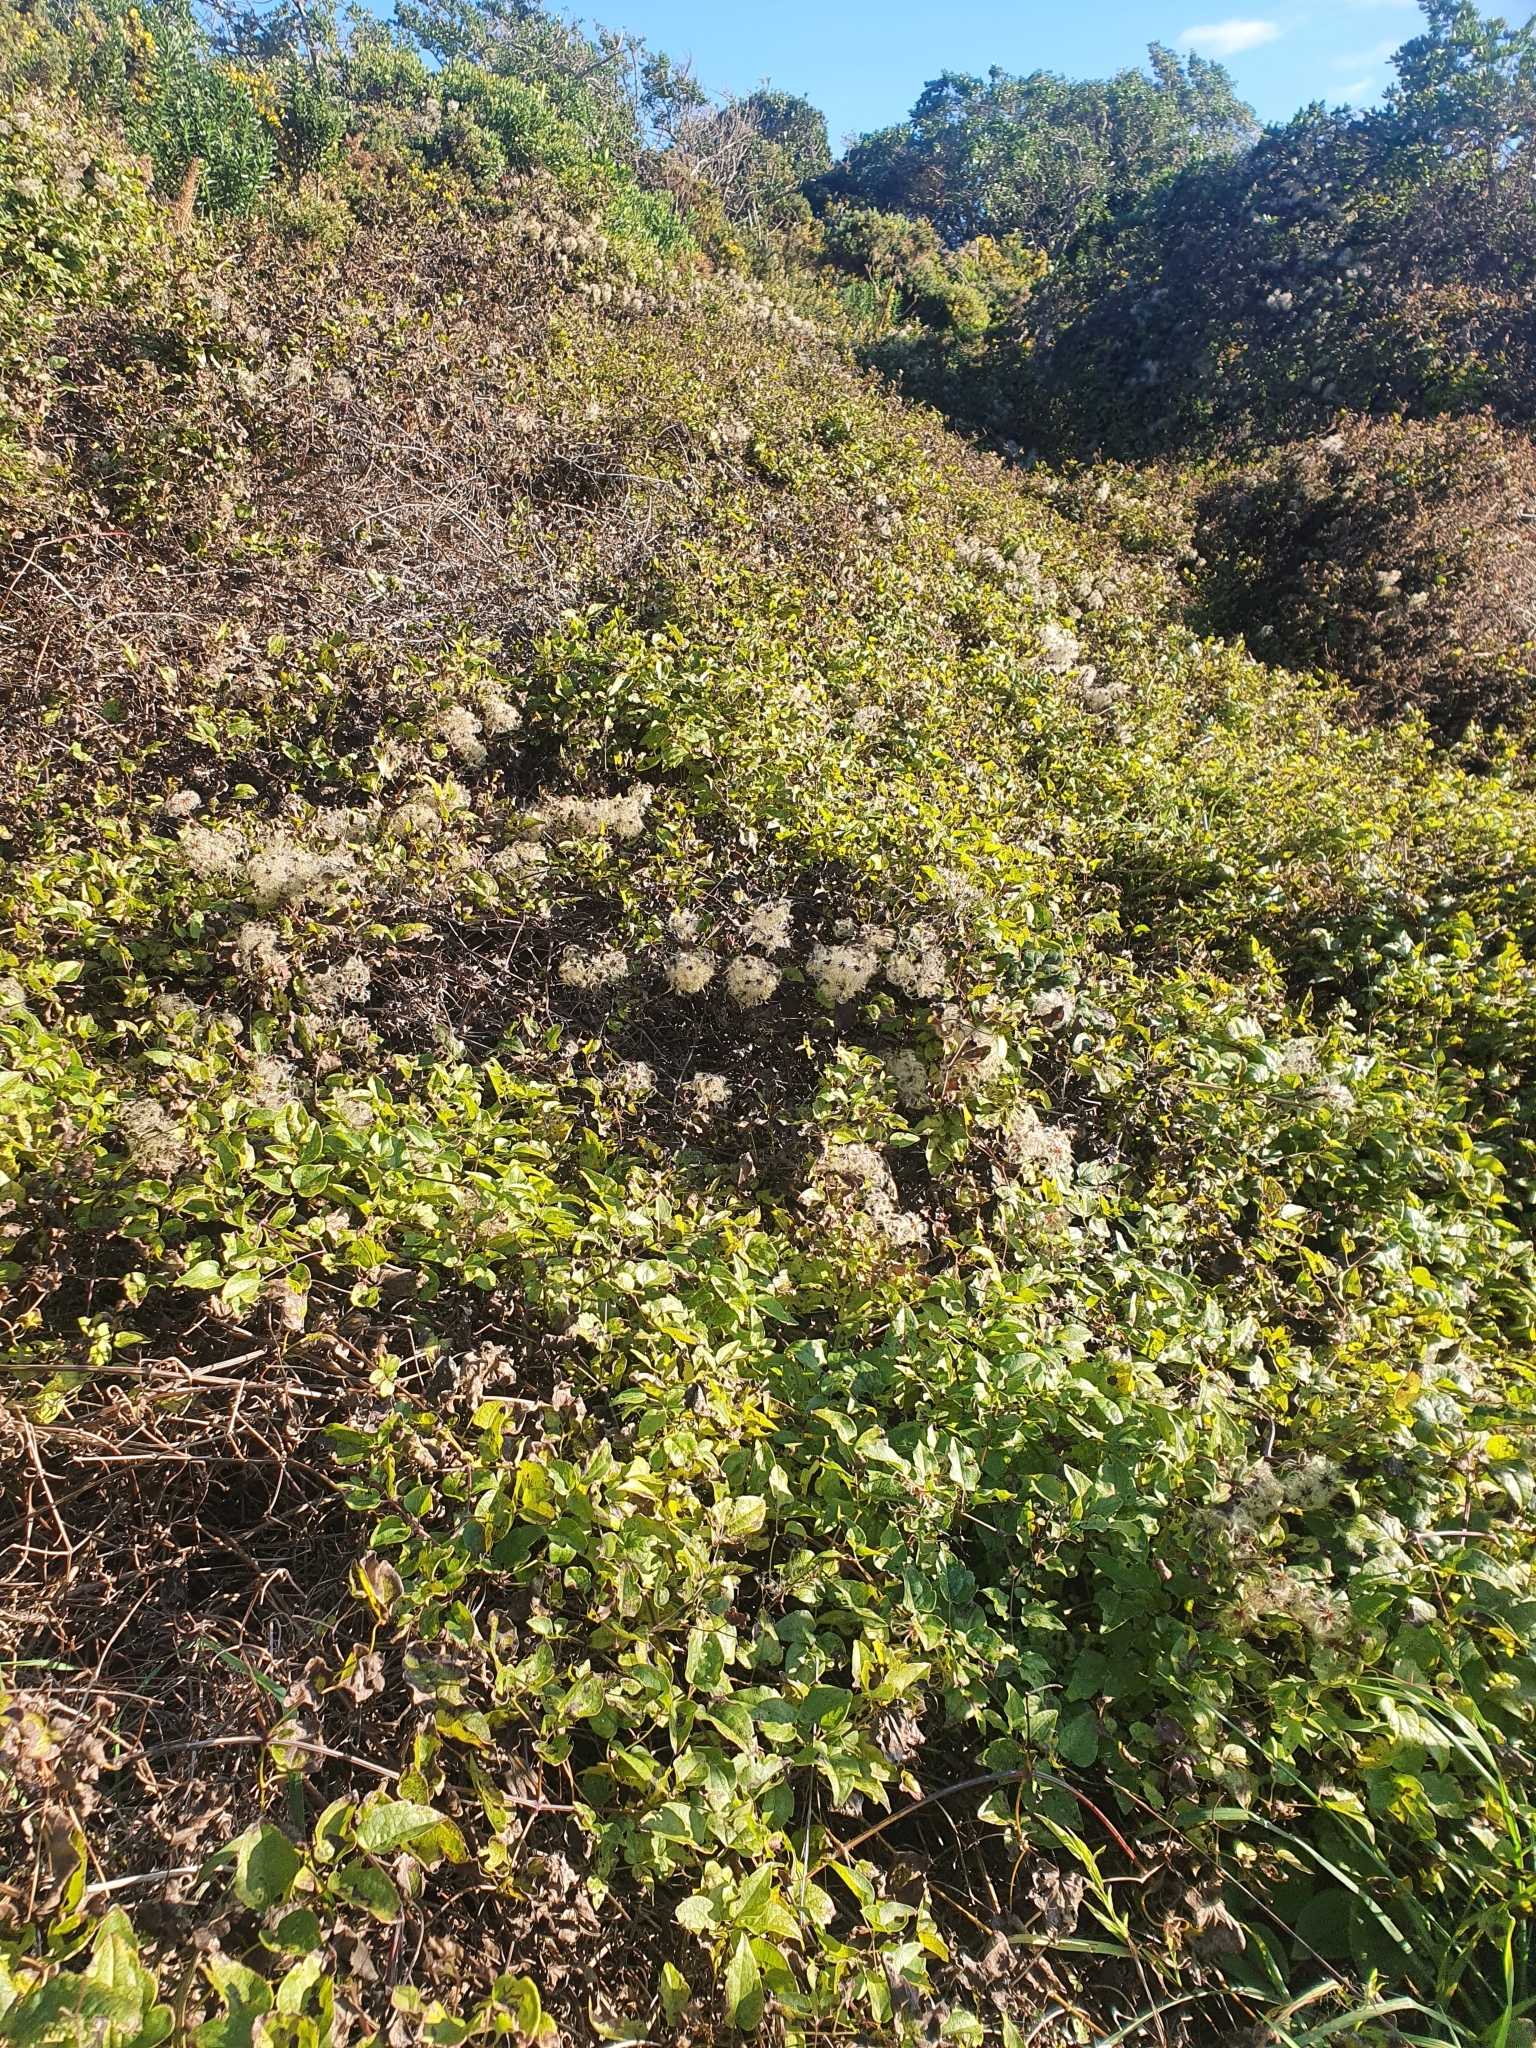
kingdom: Plantae
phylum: Tracheophyta
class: Magnoliopsida
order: Ranunculales
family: Ranunculaceae
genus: Clematis
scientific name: Clematis vitalba
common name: Evergreen clematis
